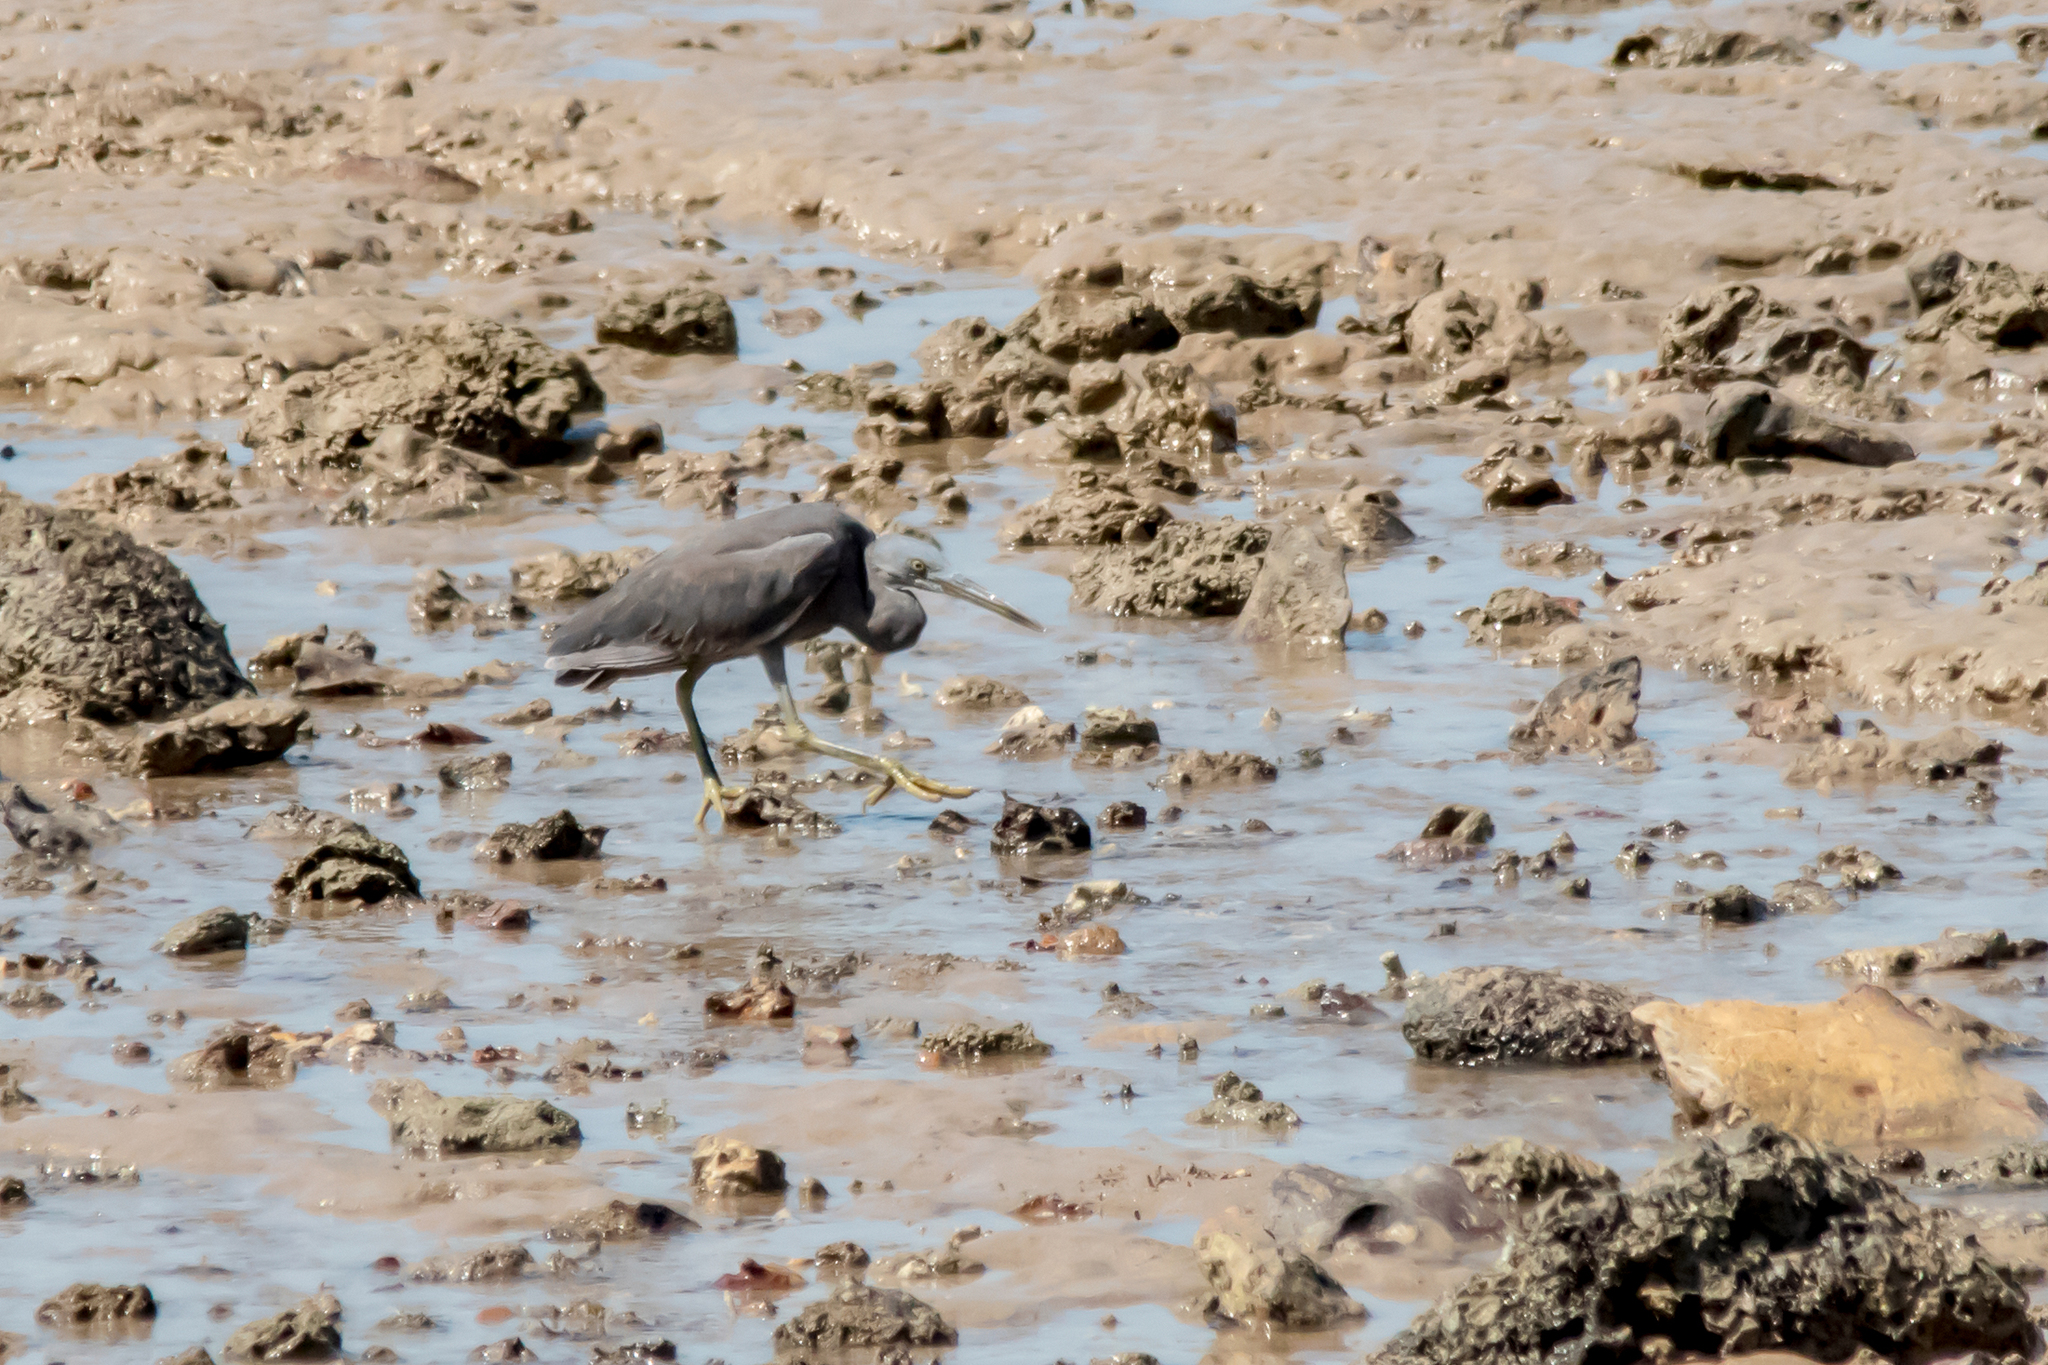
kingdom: Animalia
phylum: Chordata
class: Aves
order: Pelecaniformes
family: Ardeidae
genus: Egretta
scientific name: Egretta sacra
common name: Pacific reef heron
